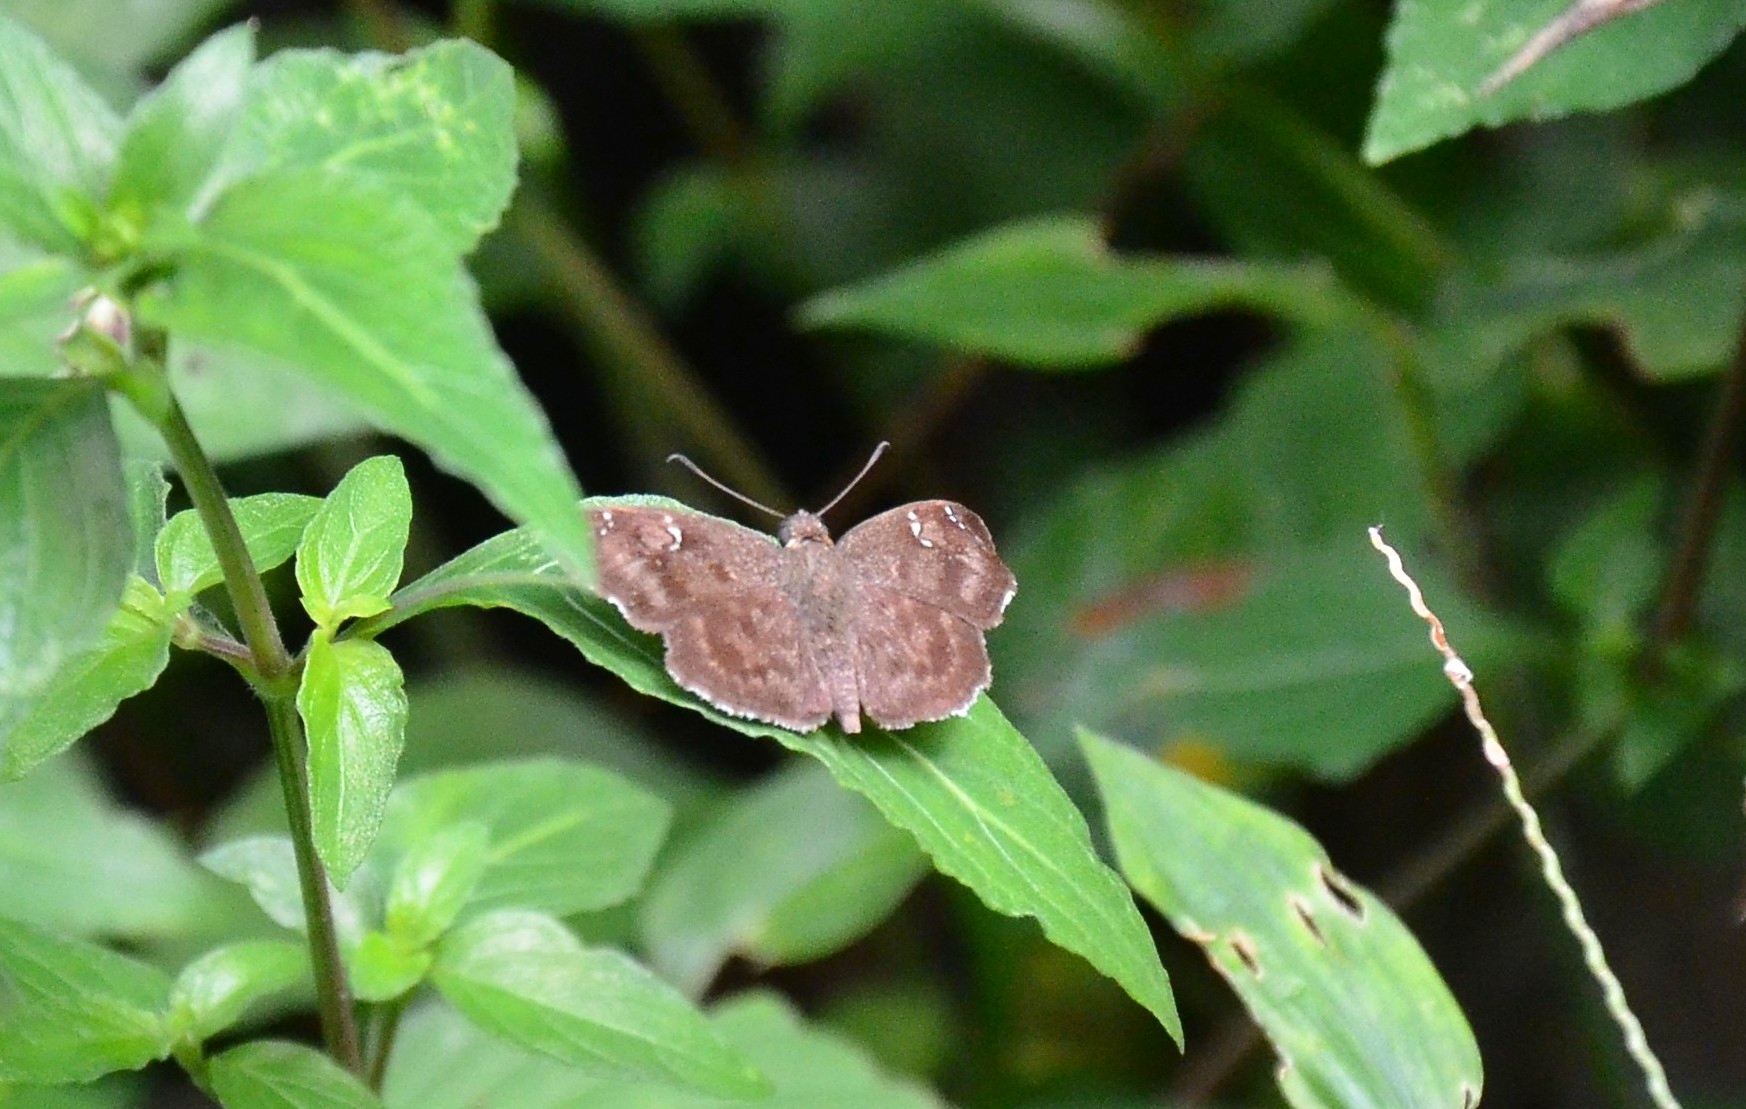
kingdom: Animalia
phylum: Arthropoda
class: Insecta
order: Lepidoptera
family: Hesperiidae
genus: Sarangesa
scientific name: Sarangesa dasahara
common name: Common small flat
